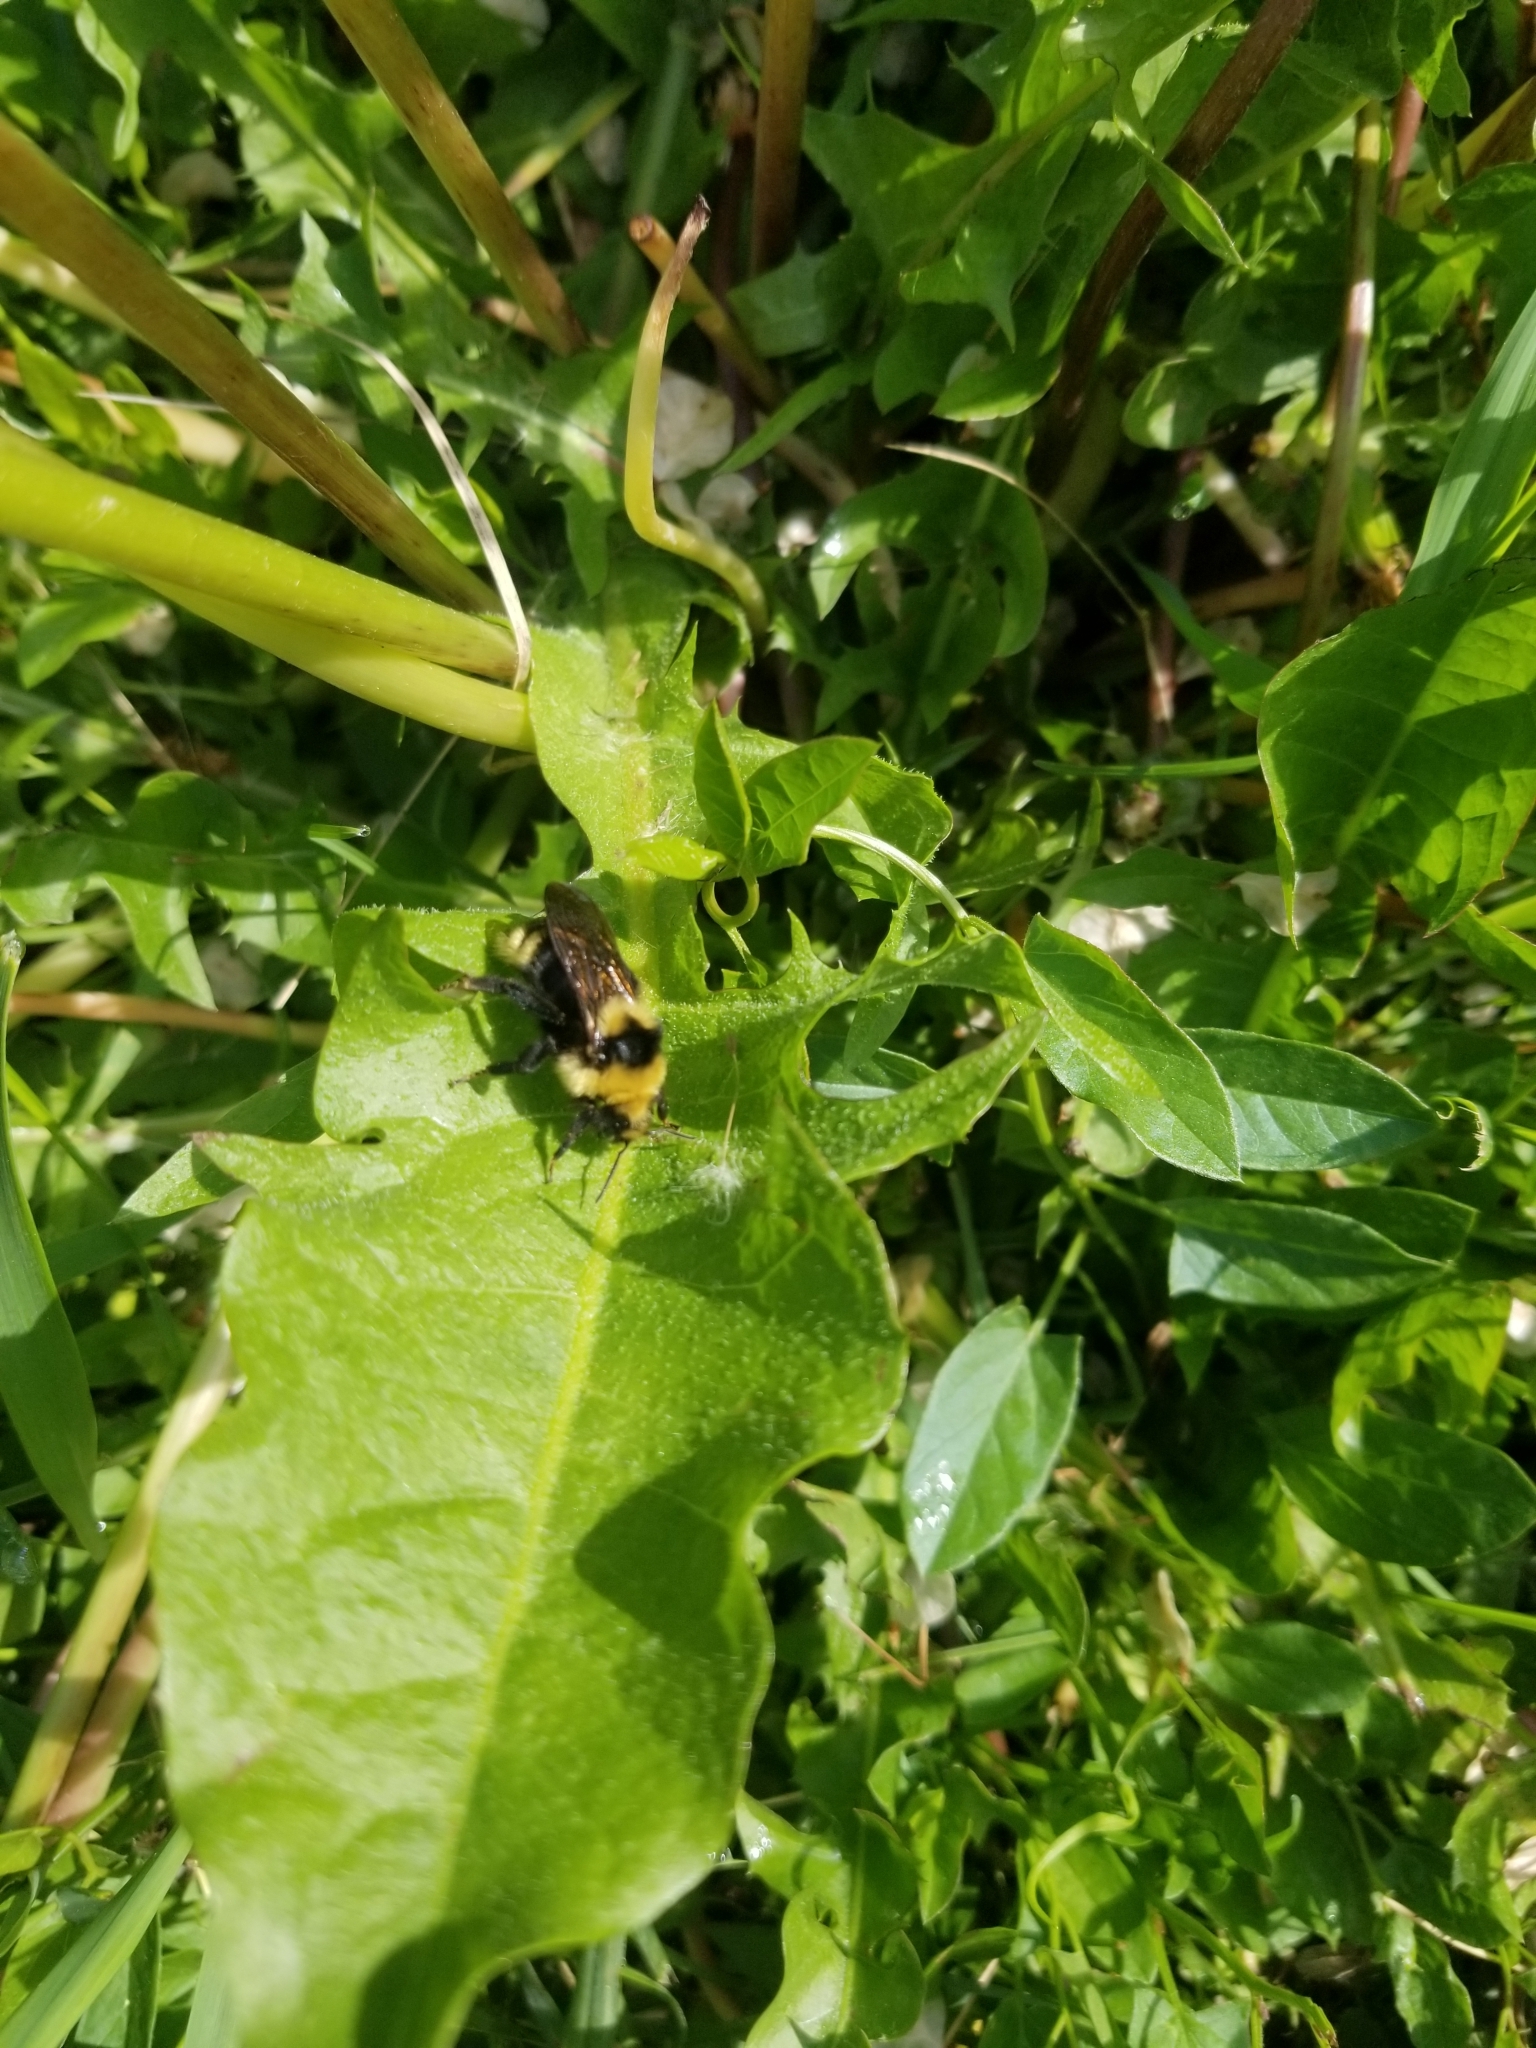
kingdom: Animalia
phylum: Arthropoda
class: Insecta
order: Hymenoptera
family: Apidae
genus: Bombus
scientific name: Bombus insularis
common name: Indiscriminate cuckoo bumble bee
